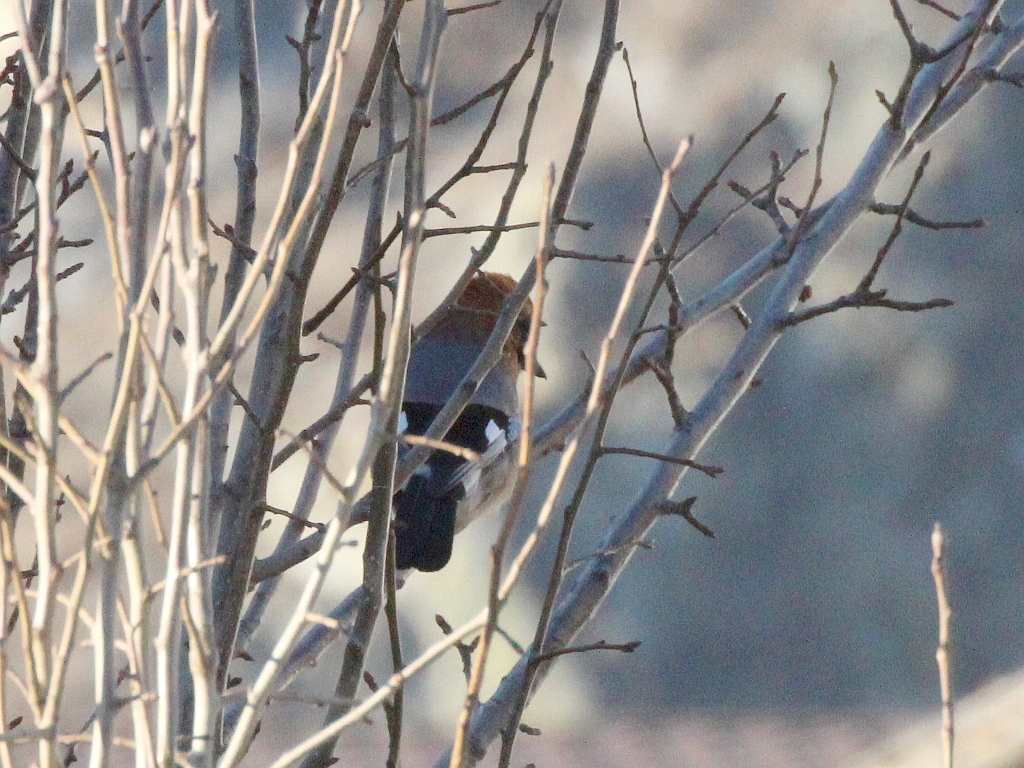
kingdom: Animalia
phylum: Chordata
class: Aves
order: Passeriformes
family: Corvidae
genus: Garrulus
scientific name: Garrulus glandarius
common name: Eurasian jay
